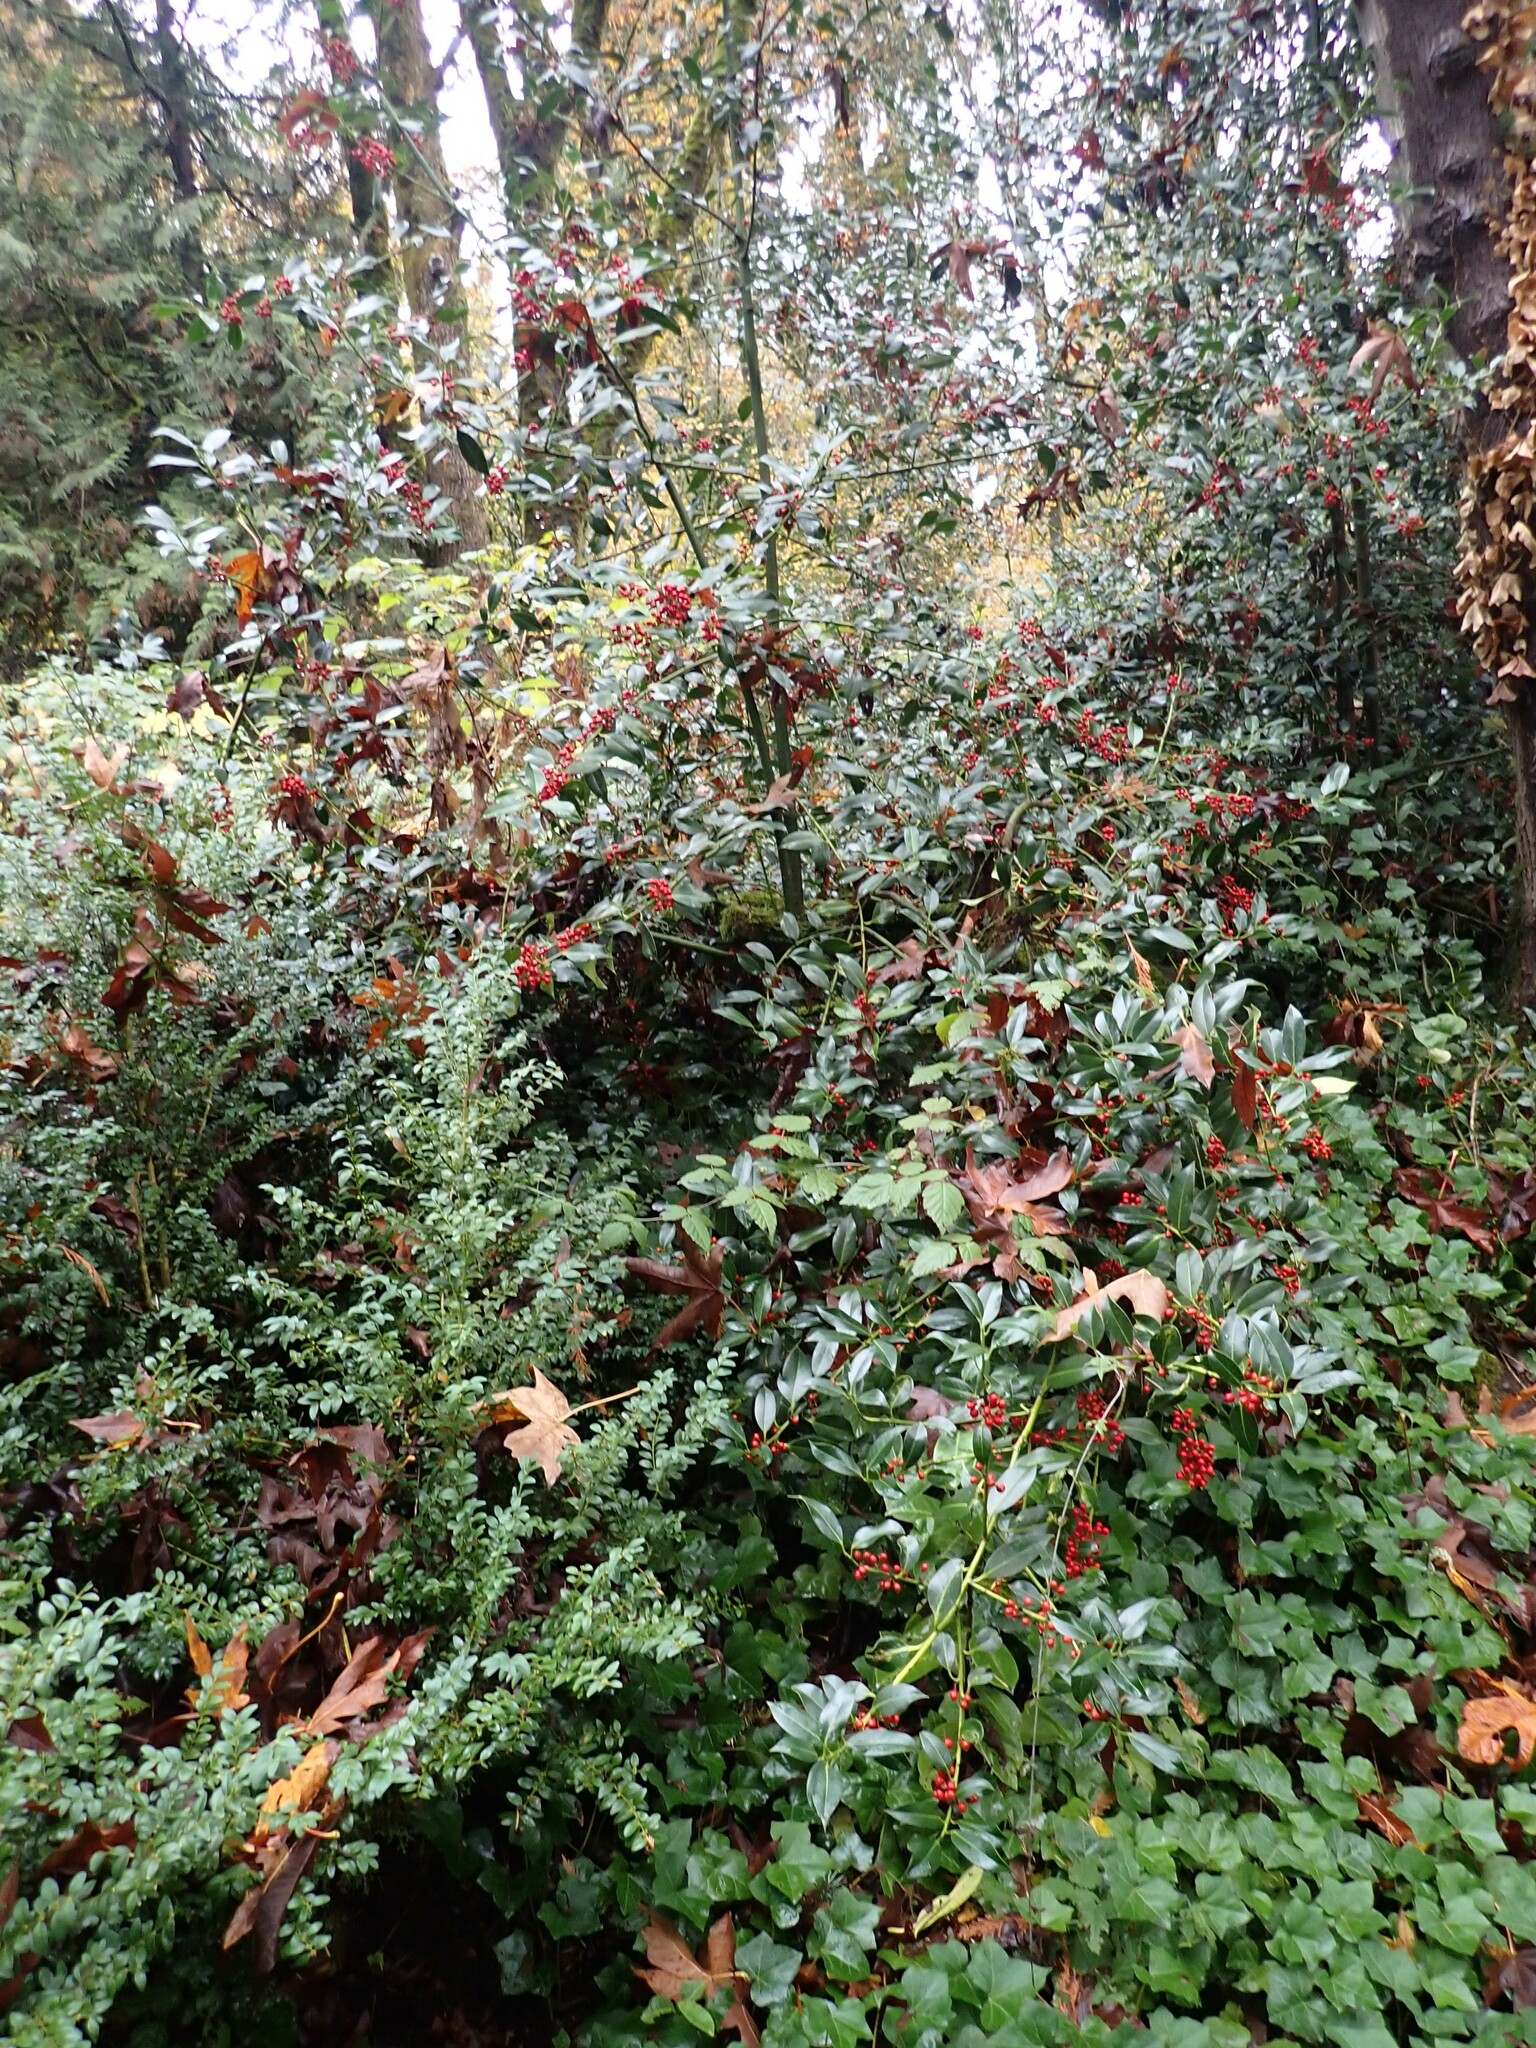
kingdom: Plantae
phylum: Tracheophyta
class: Magnoliopsida
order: Aquifoliales
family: Aquifoliaceae
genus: Ilex
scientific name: Ilex aquifolium
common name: English holly
